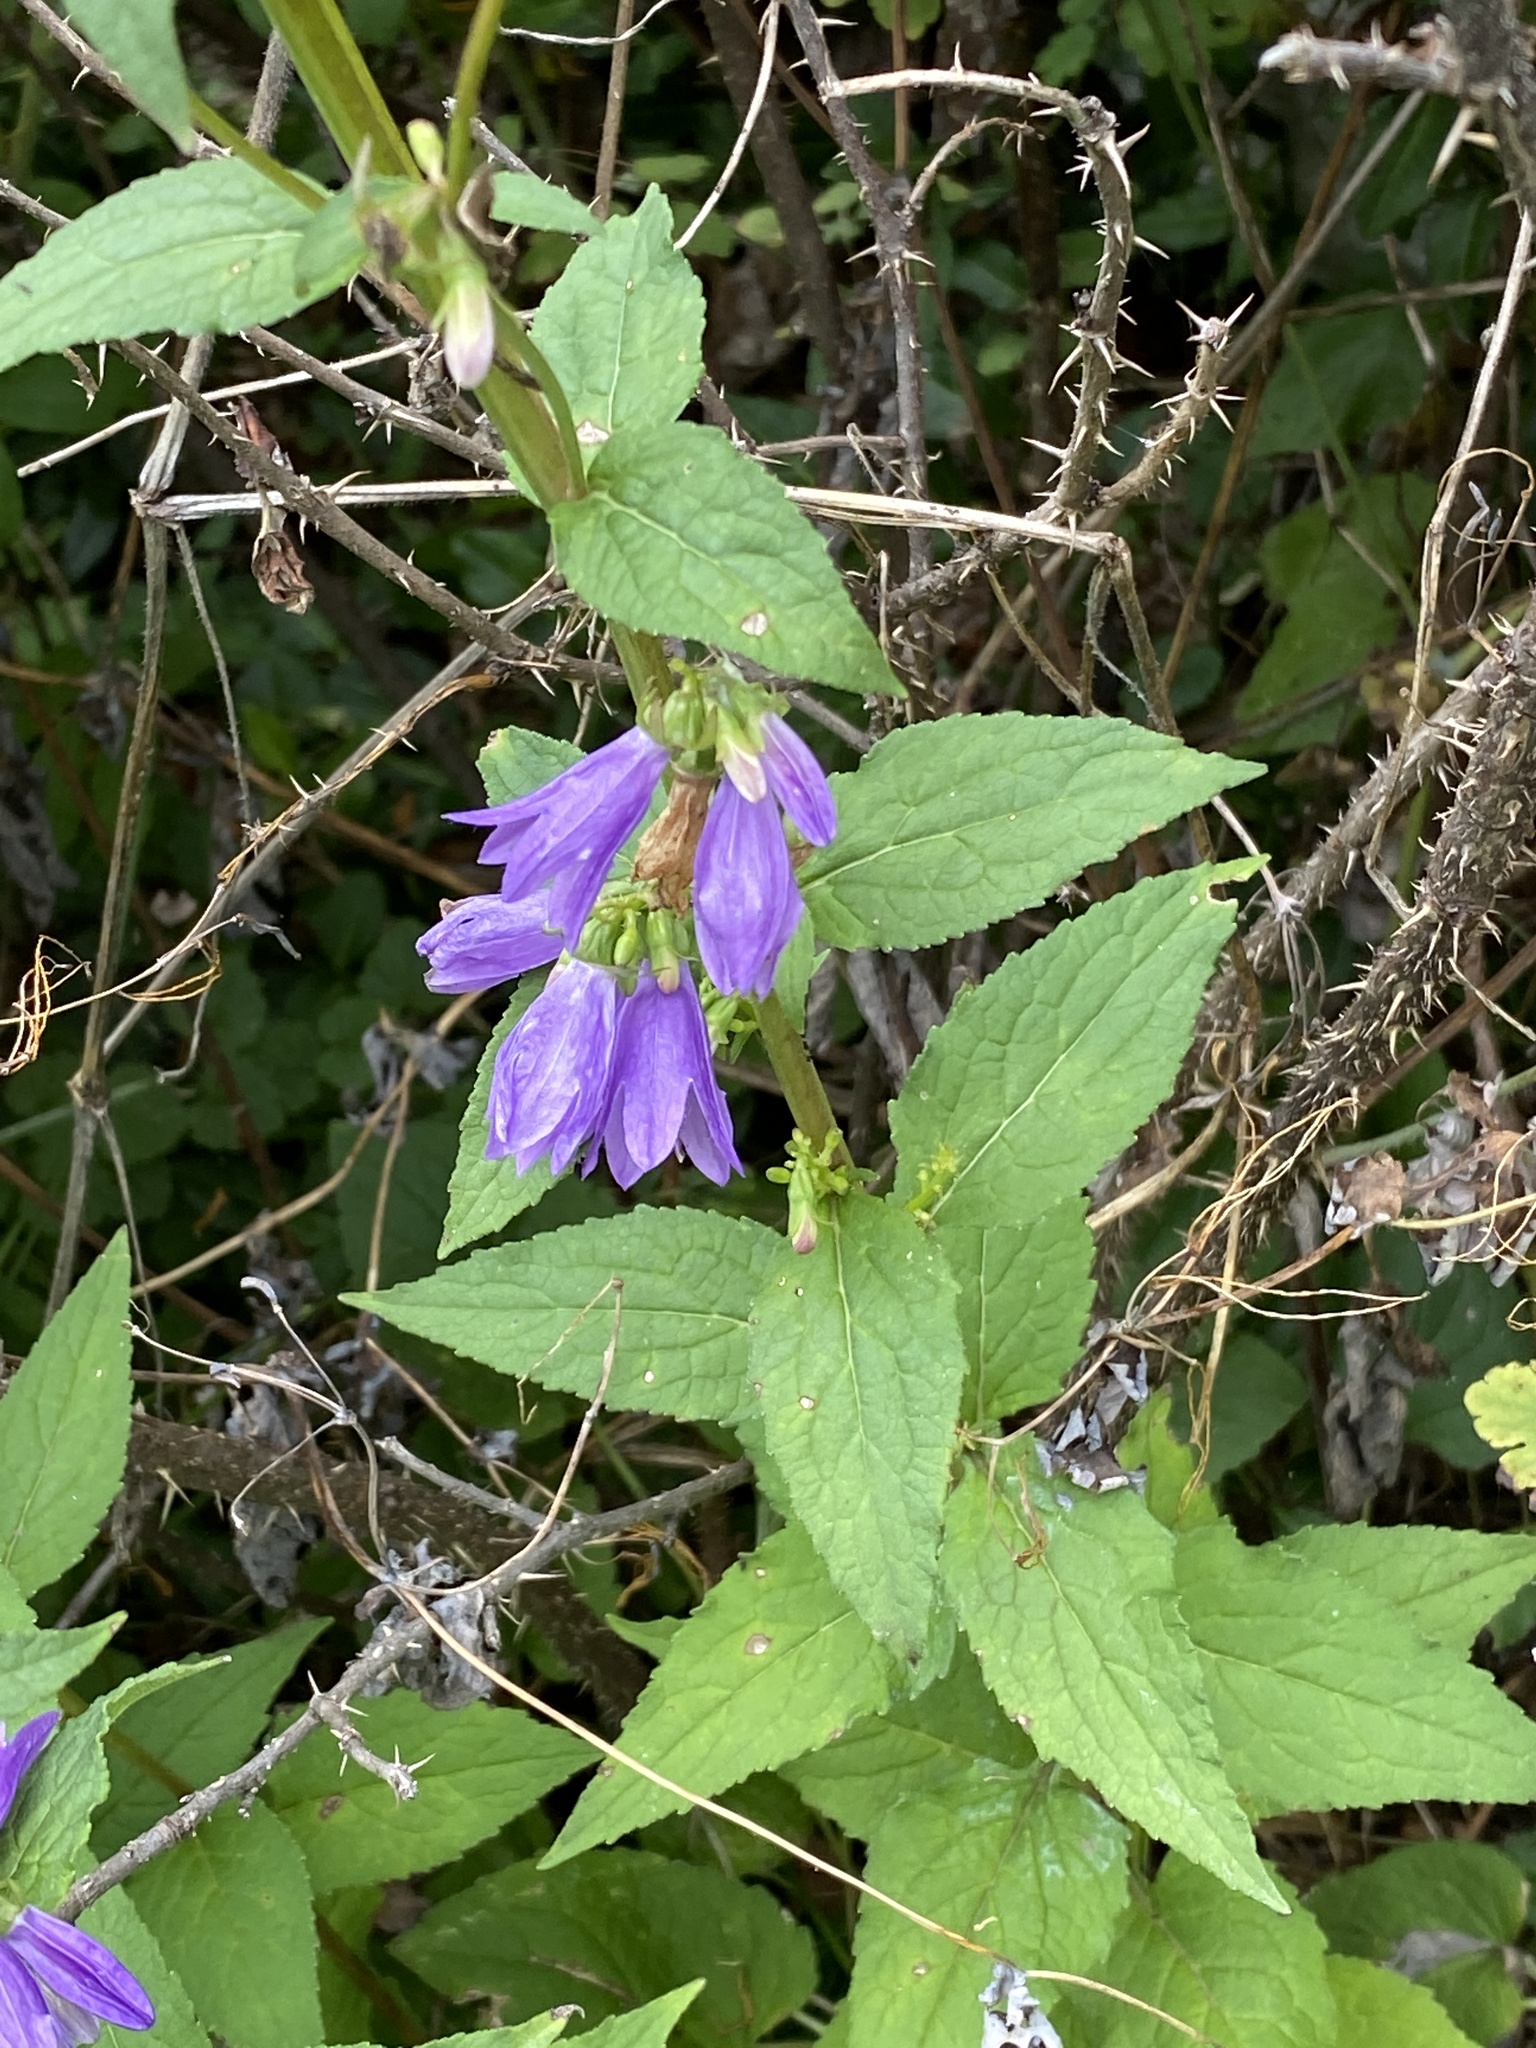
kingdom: Plantae
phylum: Tracheophyta
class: Magnoliopsida
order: Asterales
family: Campanulaceae
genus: Campanula
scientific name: Campanula rapunculoides
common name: Creeping bellflower
